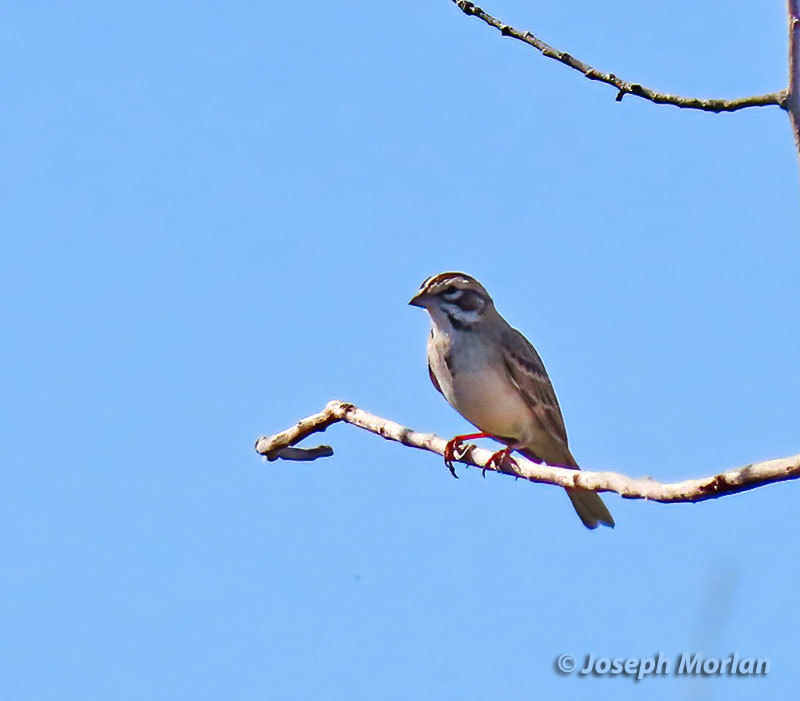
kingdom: Animalia
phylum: Chordata
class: Aves
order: Passeriformes
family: Passerellidae
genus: Chondestes
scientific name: Chondestes grammacus
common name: Lark sparrow
